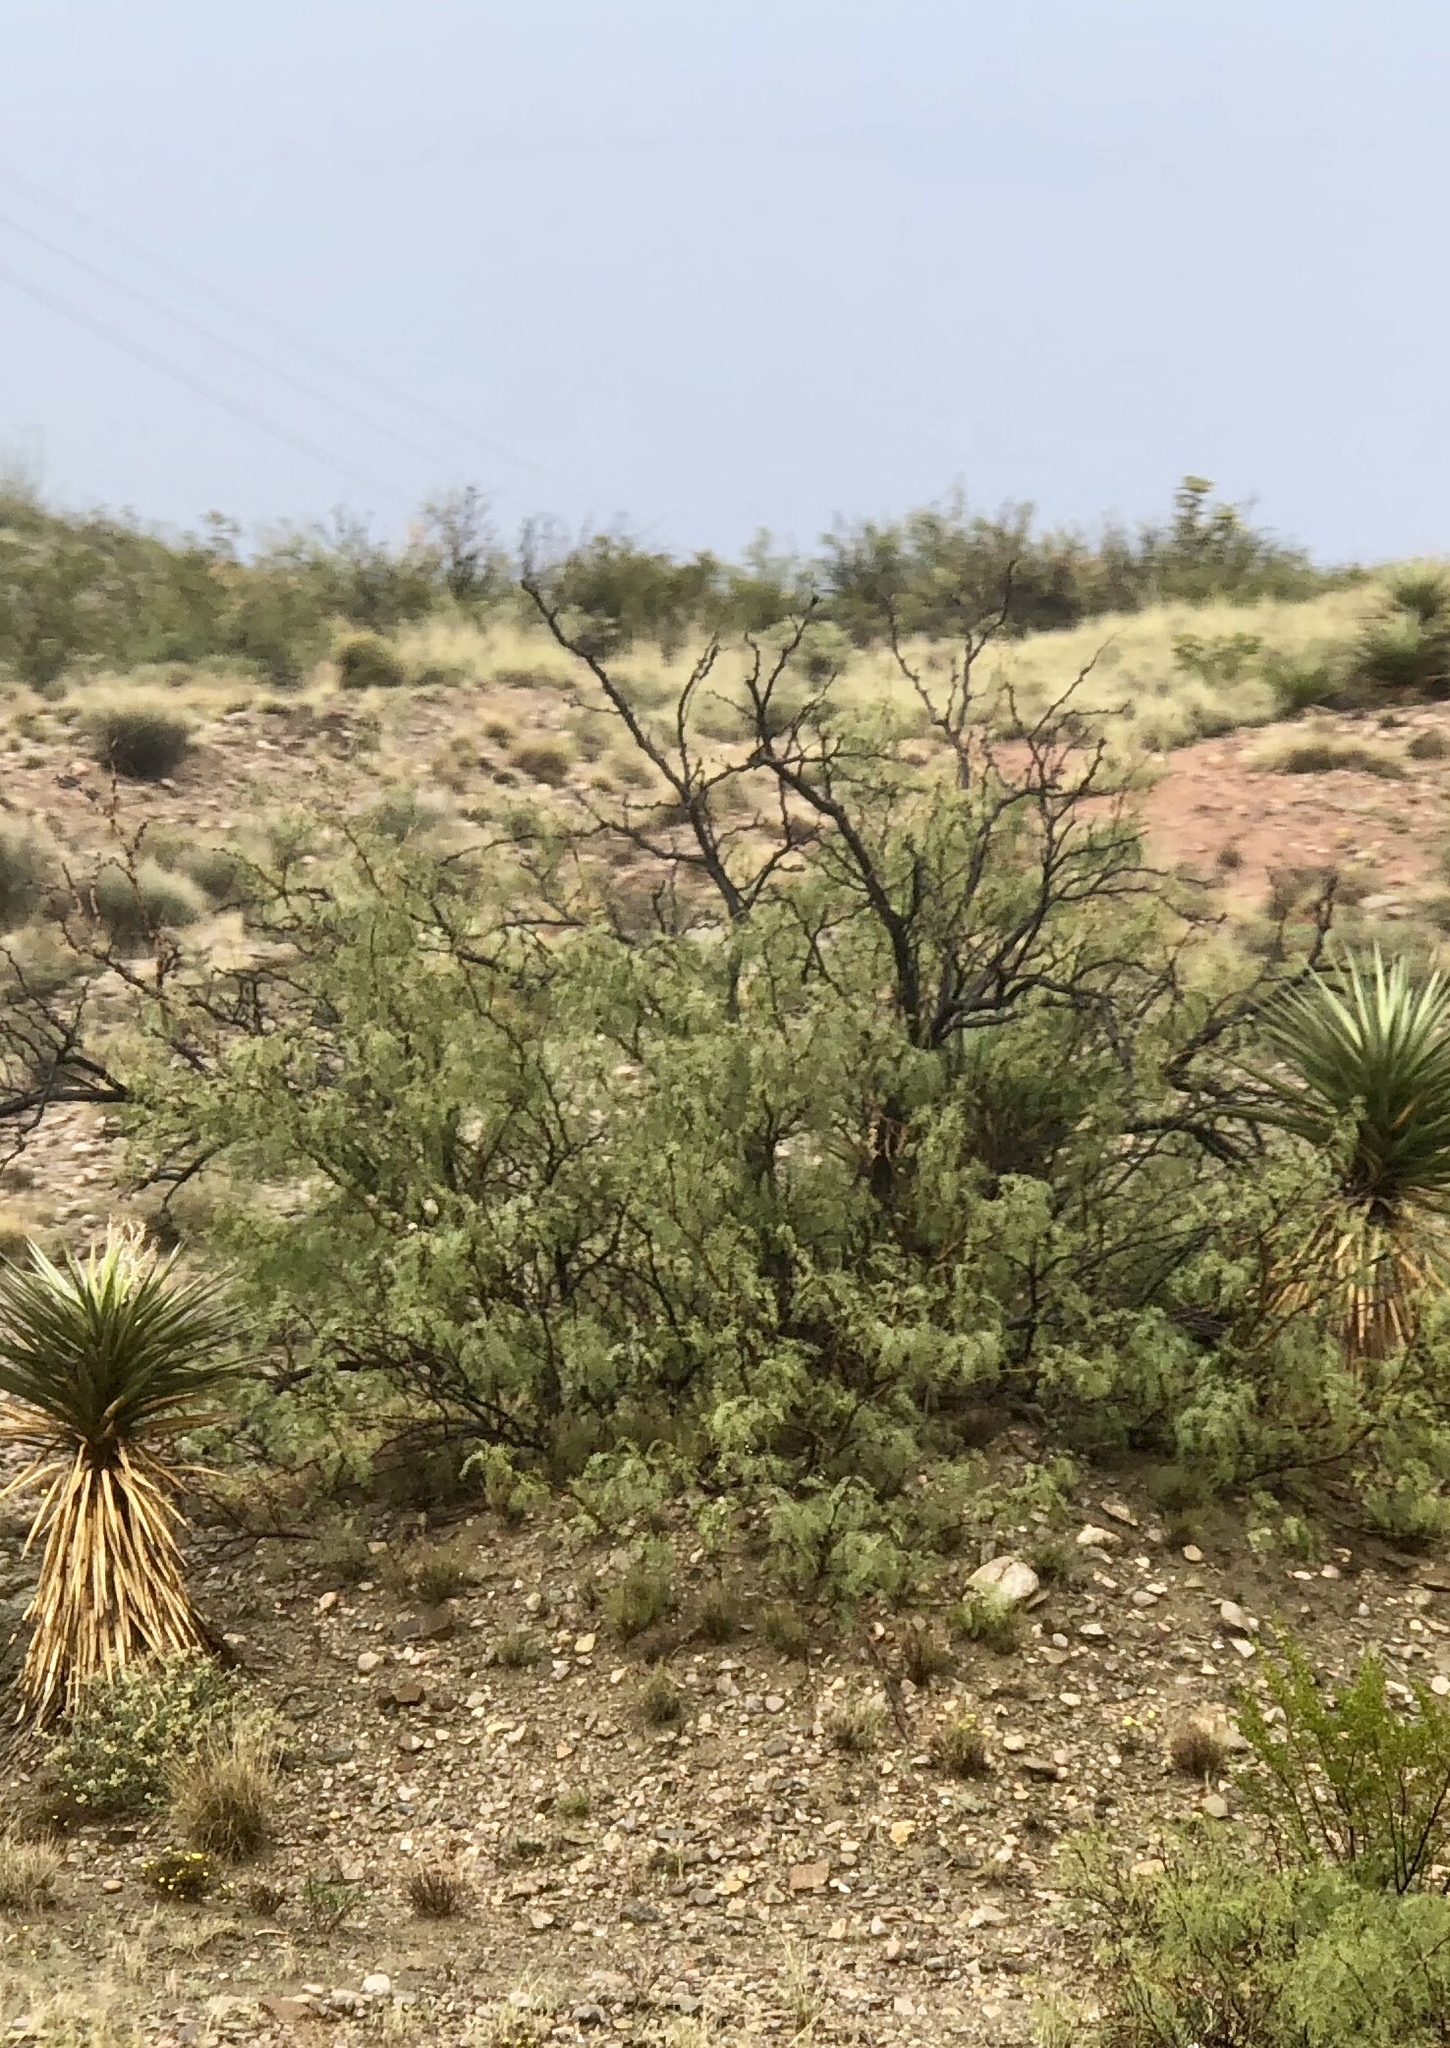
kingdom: Plantae
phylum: Tracheophyta
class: Magnoliopsida
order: Fabales
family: Fabaceae
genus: Prosopis
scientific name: Prosopis glandulosa
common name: Honey mesquite
